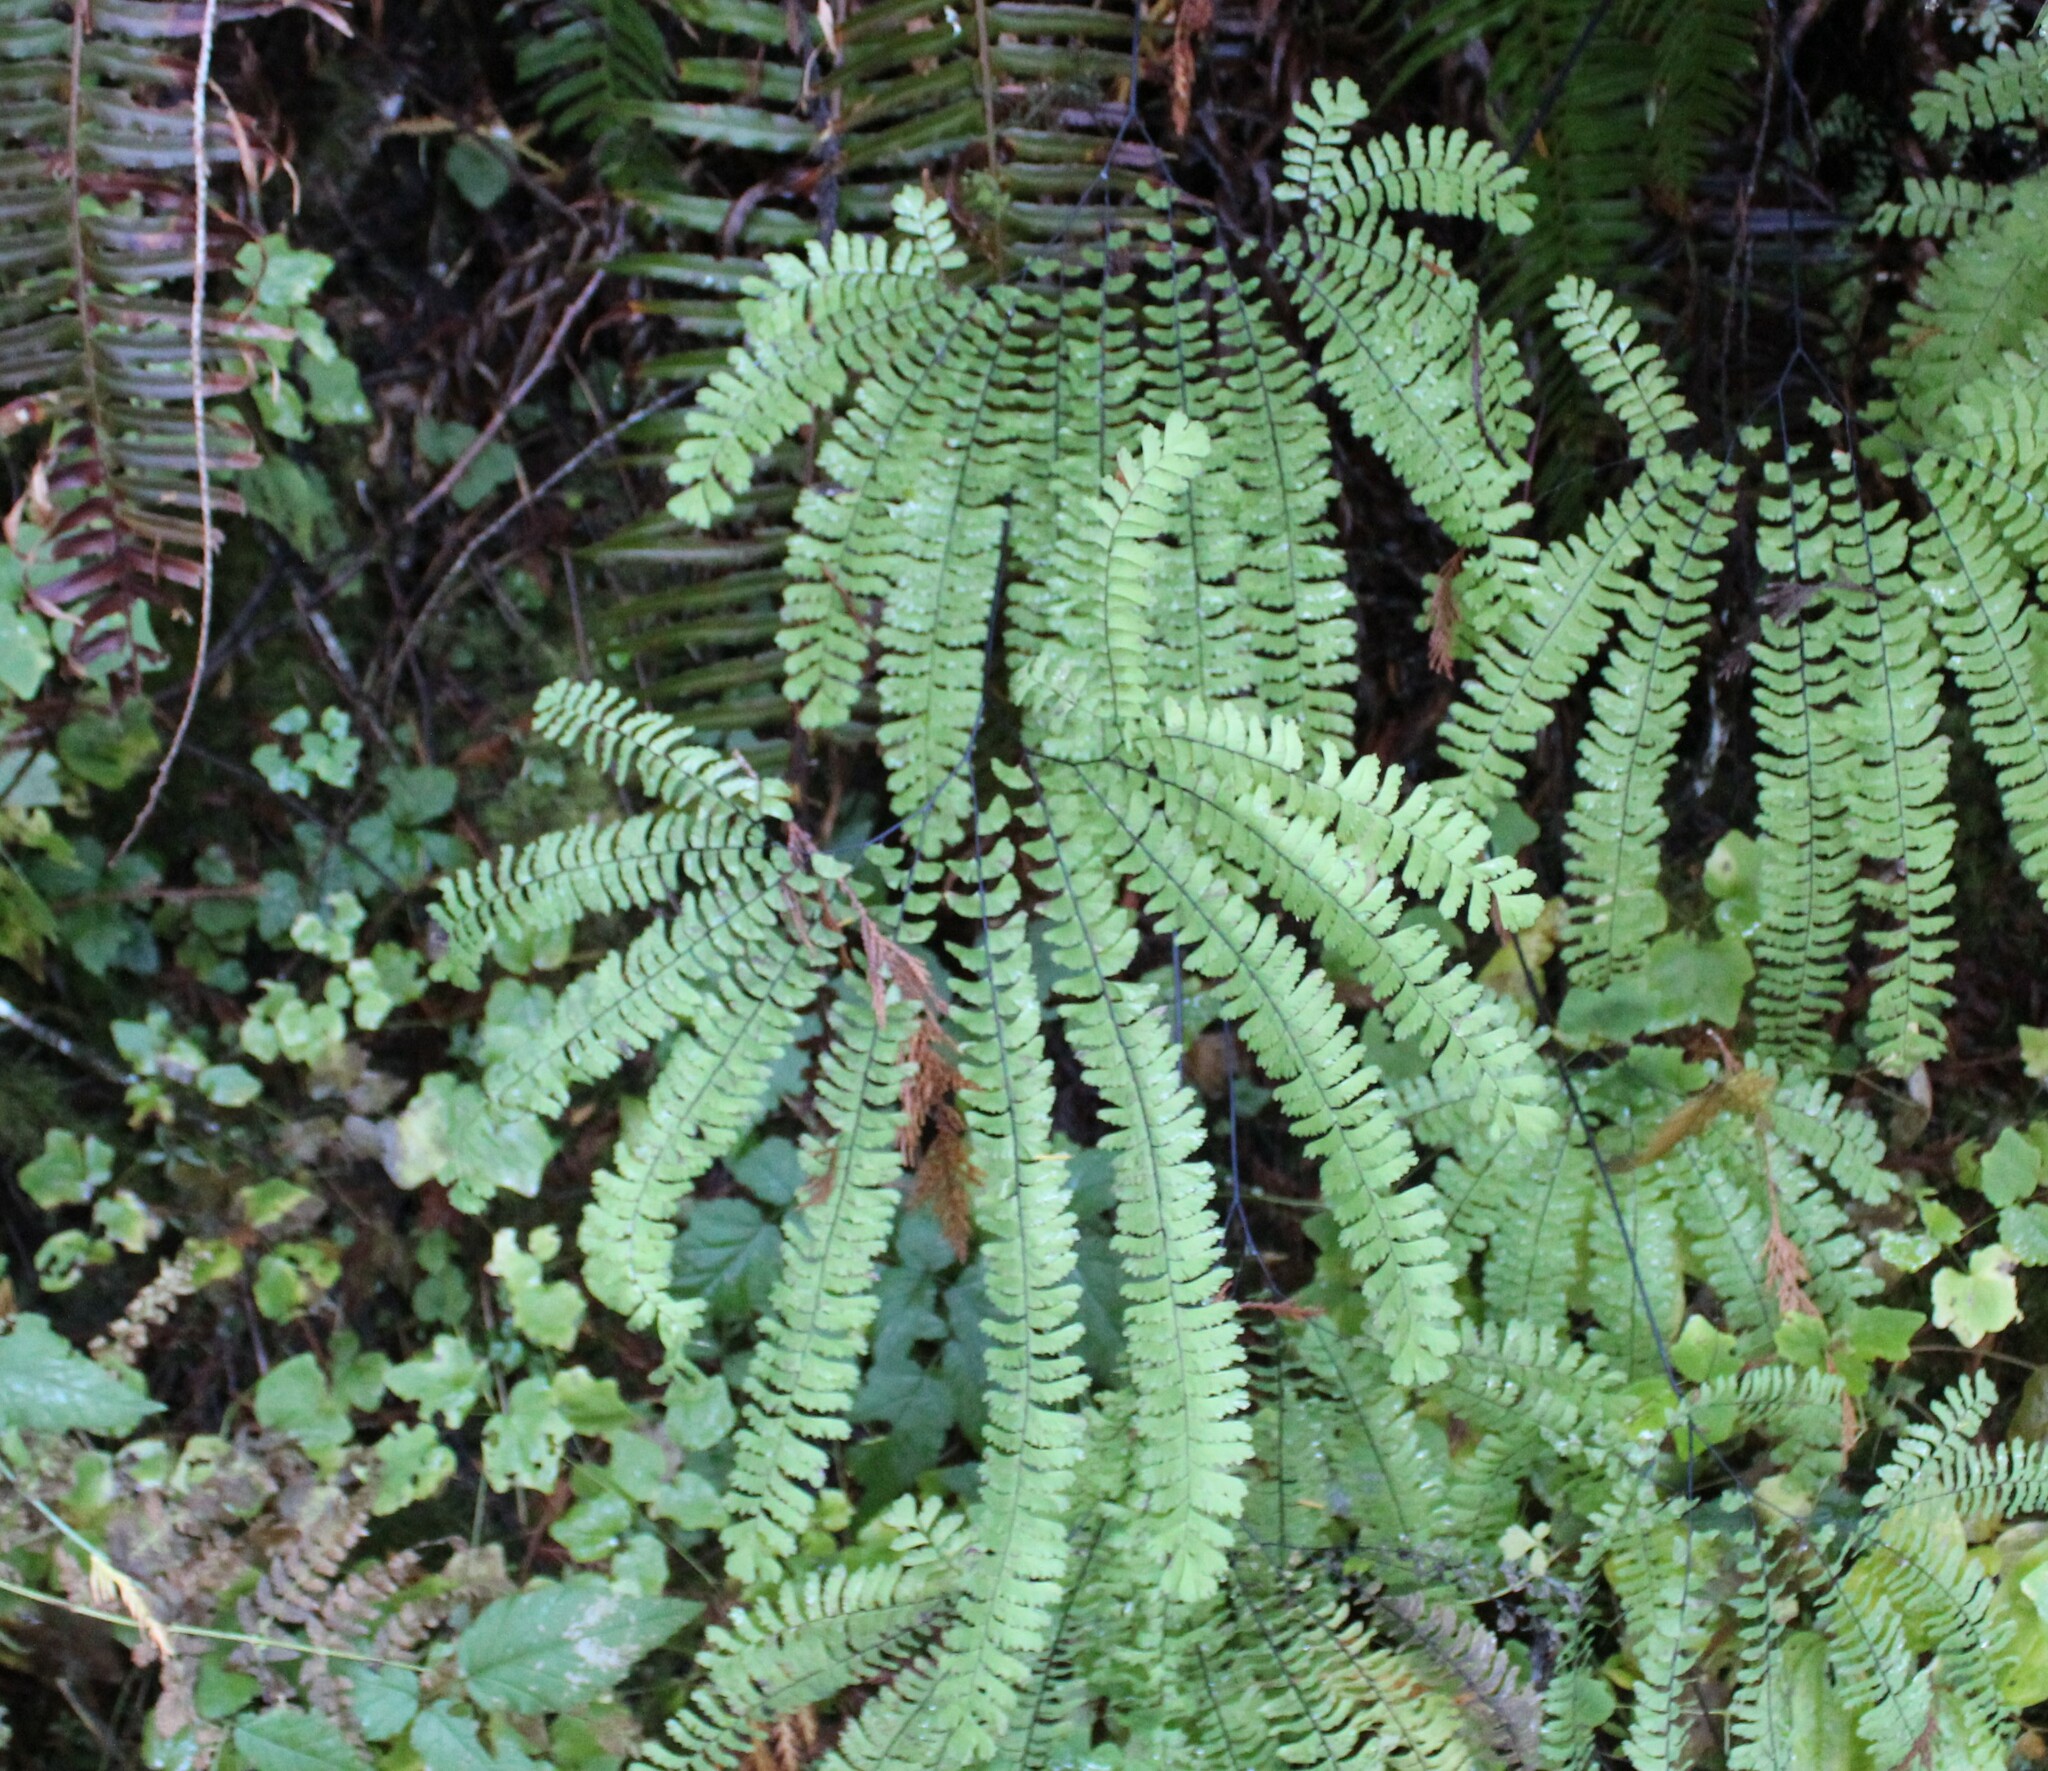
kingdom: Plantae
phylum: Tracheophyta
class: Polypodiopsida
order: Polypodiales
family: Pteridaceae
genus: Adiantum
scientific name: Adiantum aleuticum
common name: Aleutian maidenhair fern
